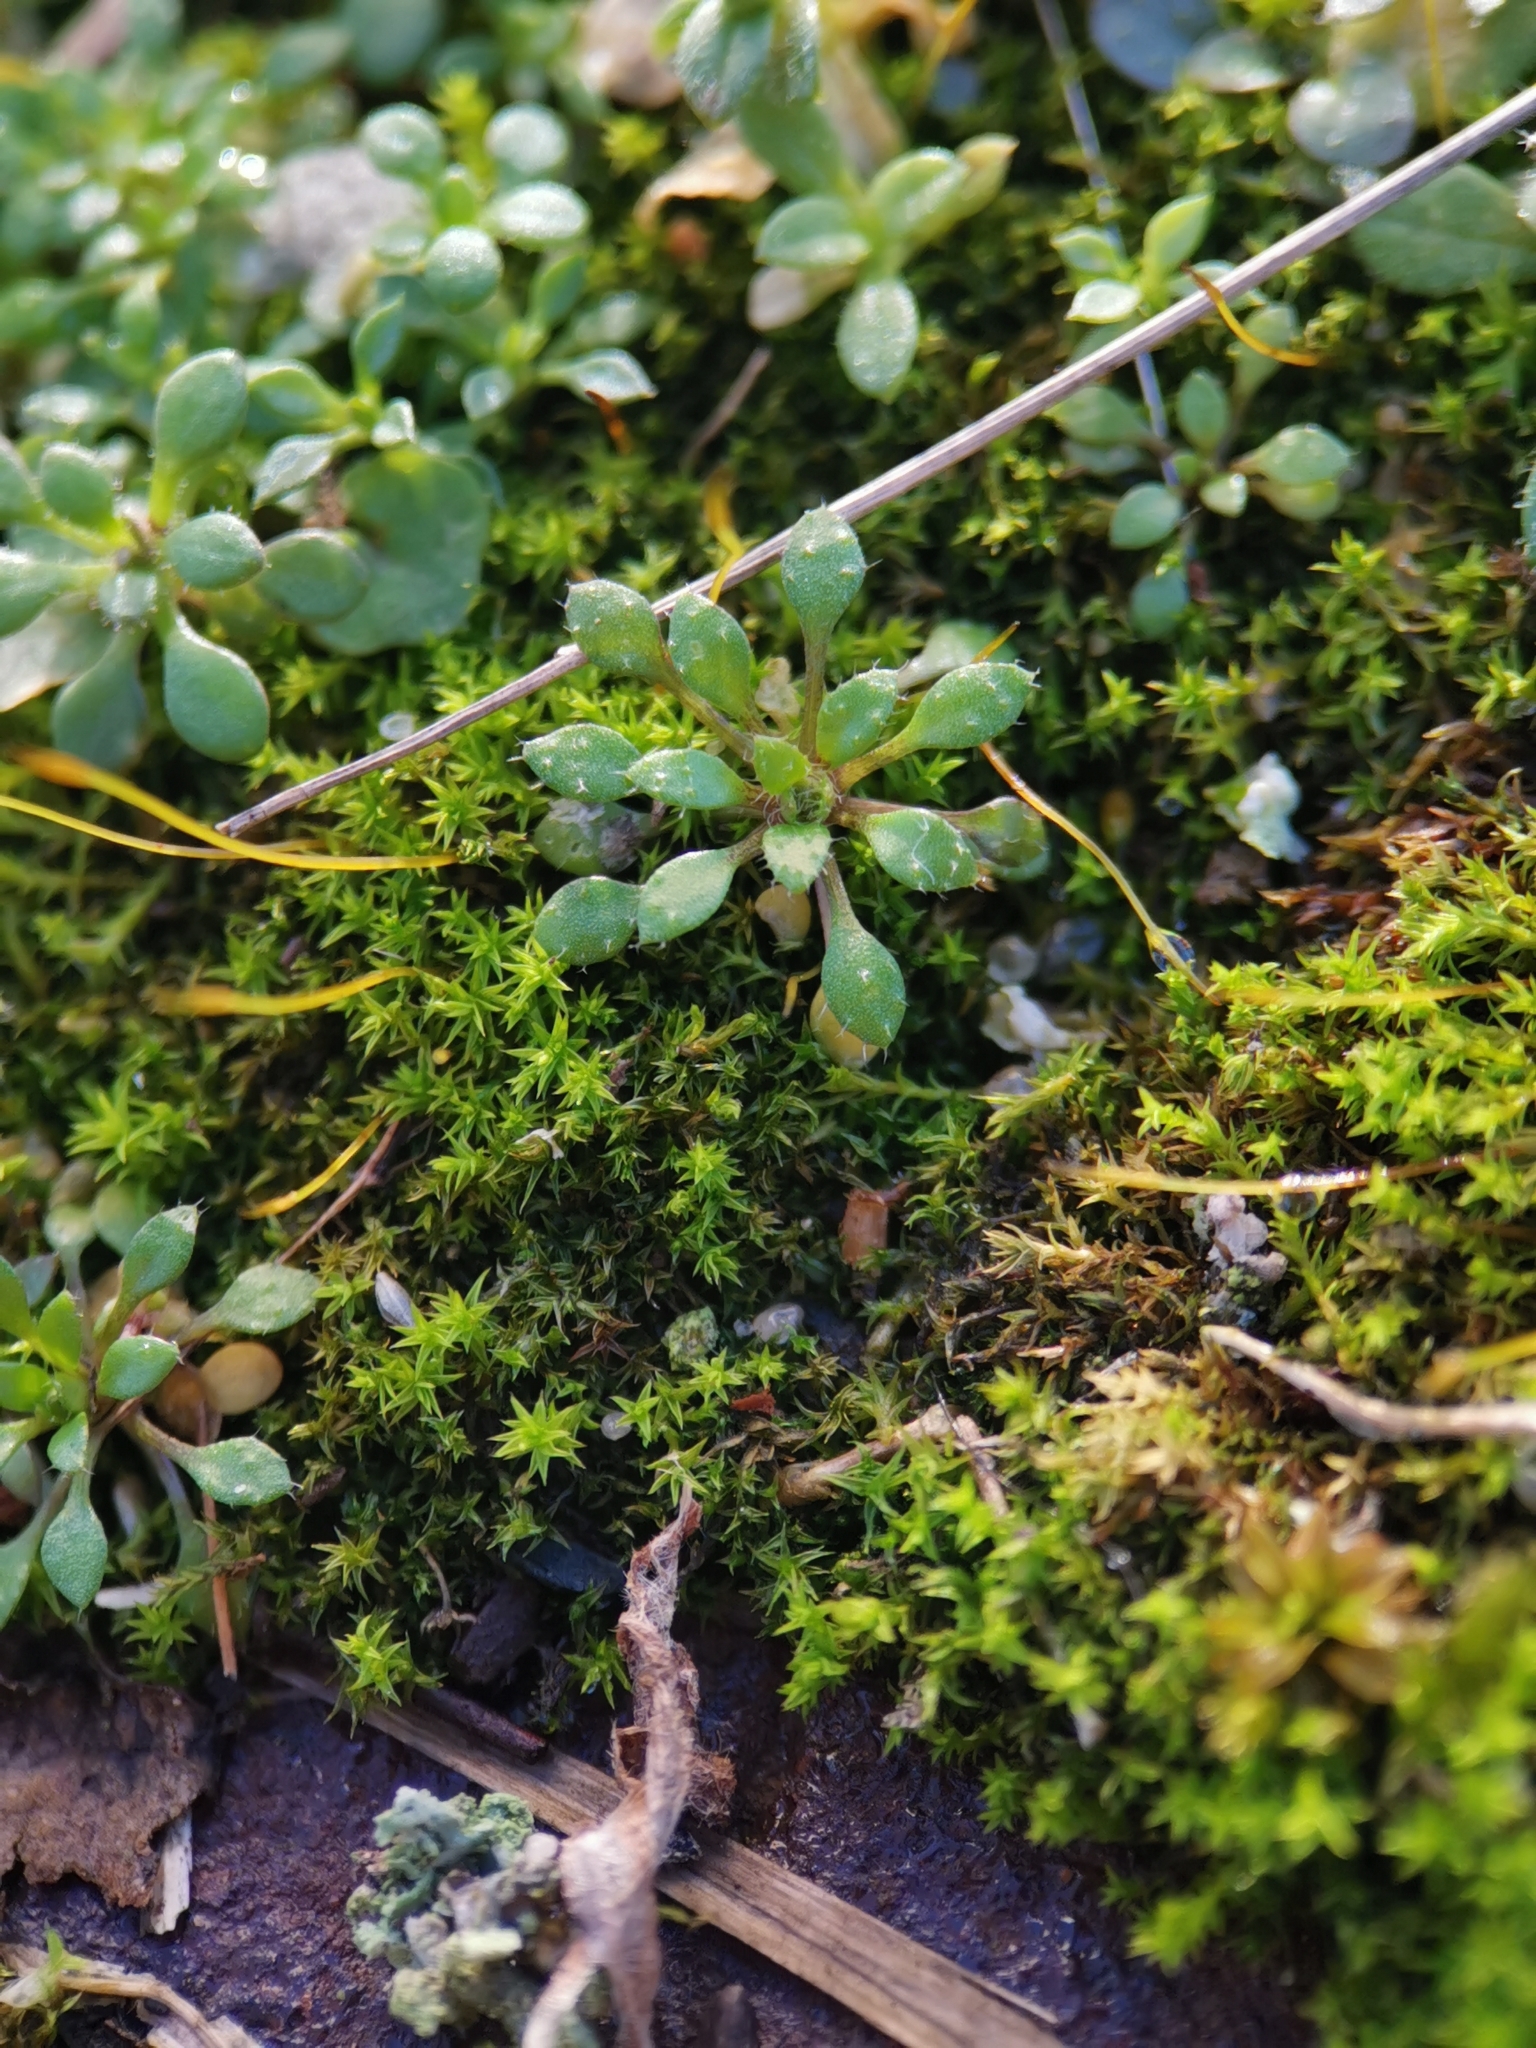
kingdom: Plantae
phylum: Tracheophyta
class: Magnoliopsida
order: Brassicales
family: Brassicaceae
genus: Draba
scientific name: Draba verna
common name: Spring draba
